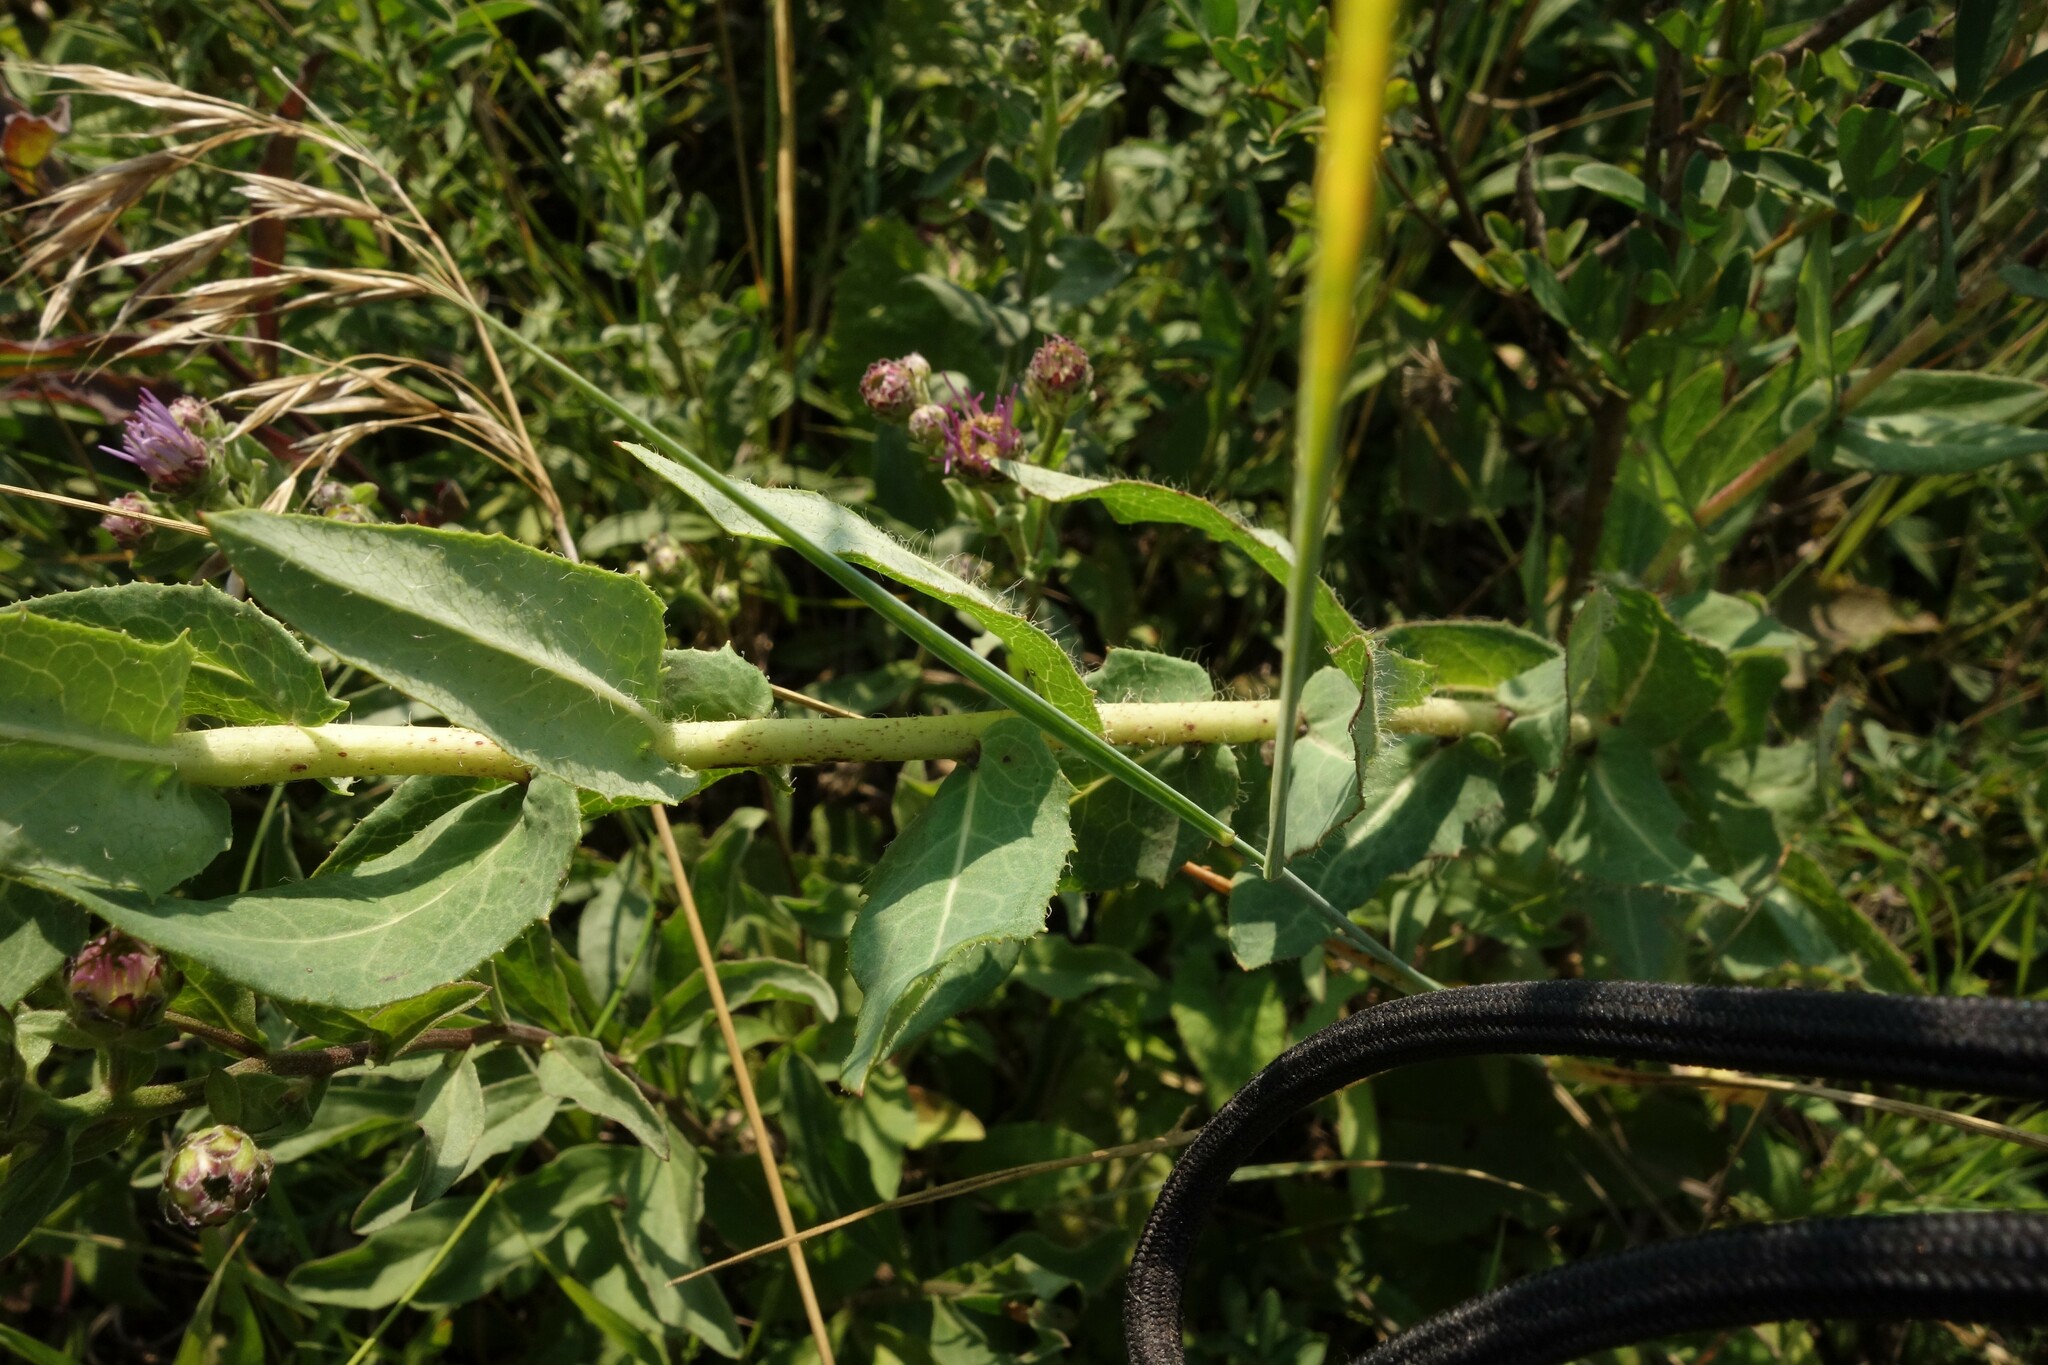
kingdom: Plantae
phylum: Tracheophyta
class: Magnoliopsida
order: Asterales
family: Asteraceae
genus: Hieracium
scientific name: Hieracium virosum
